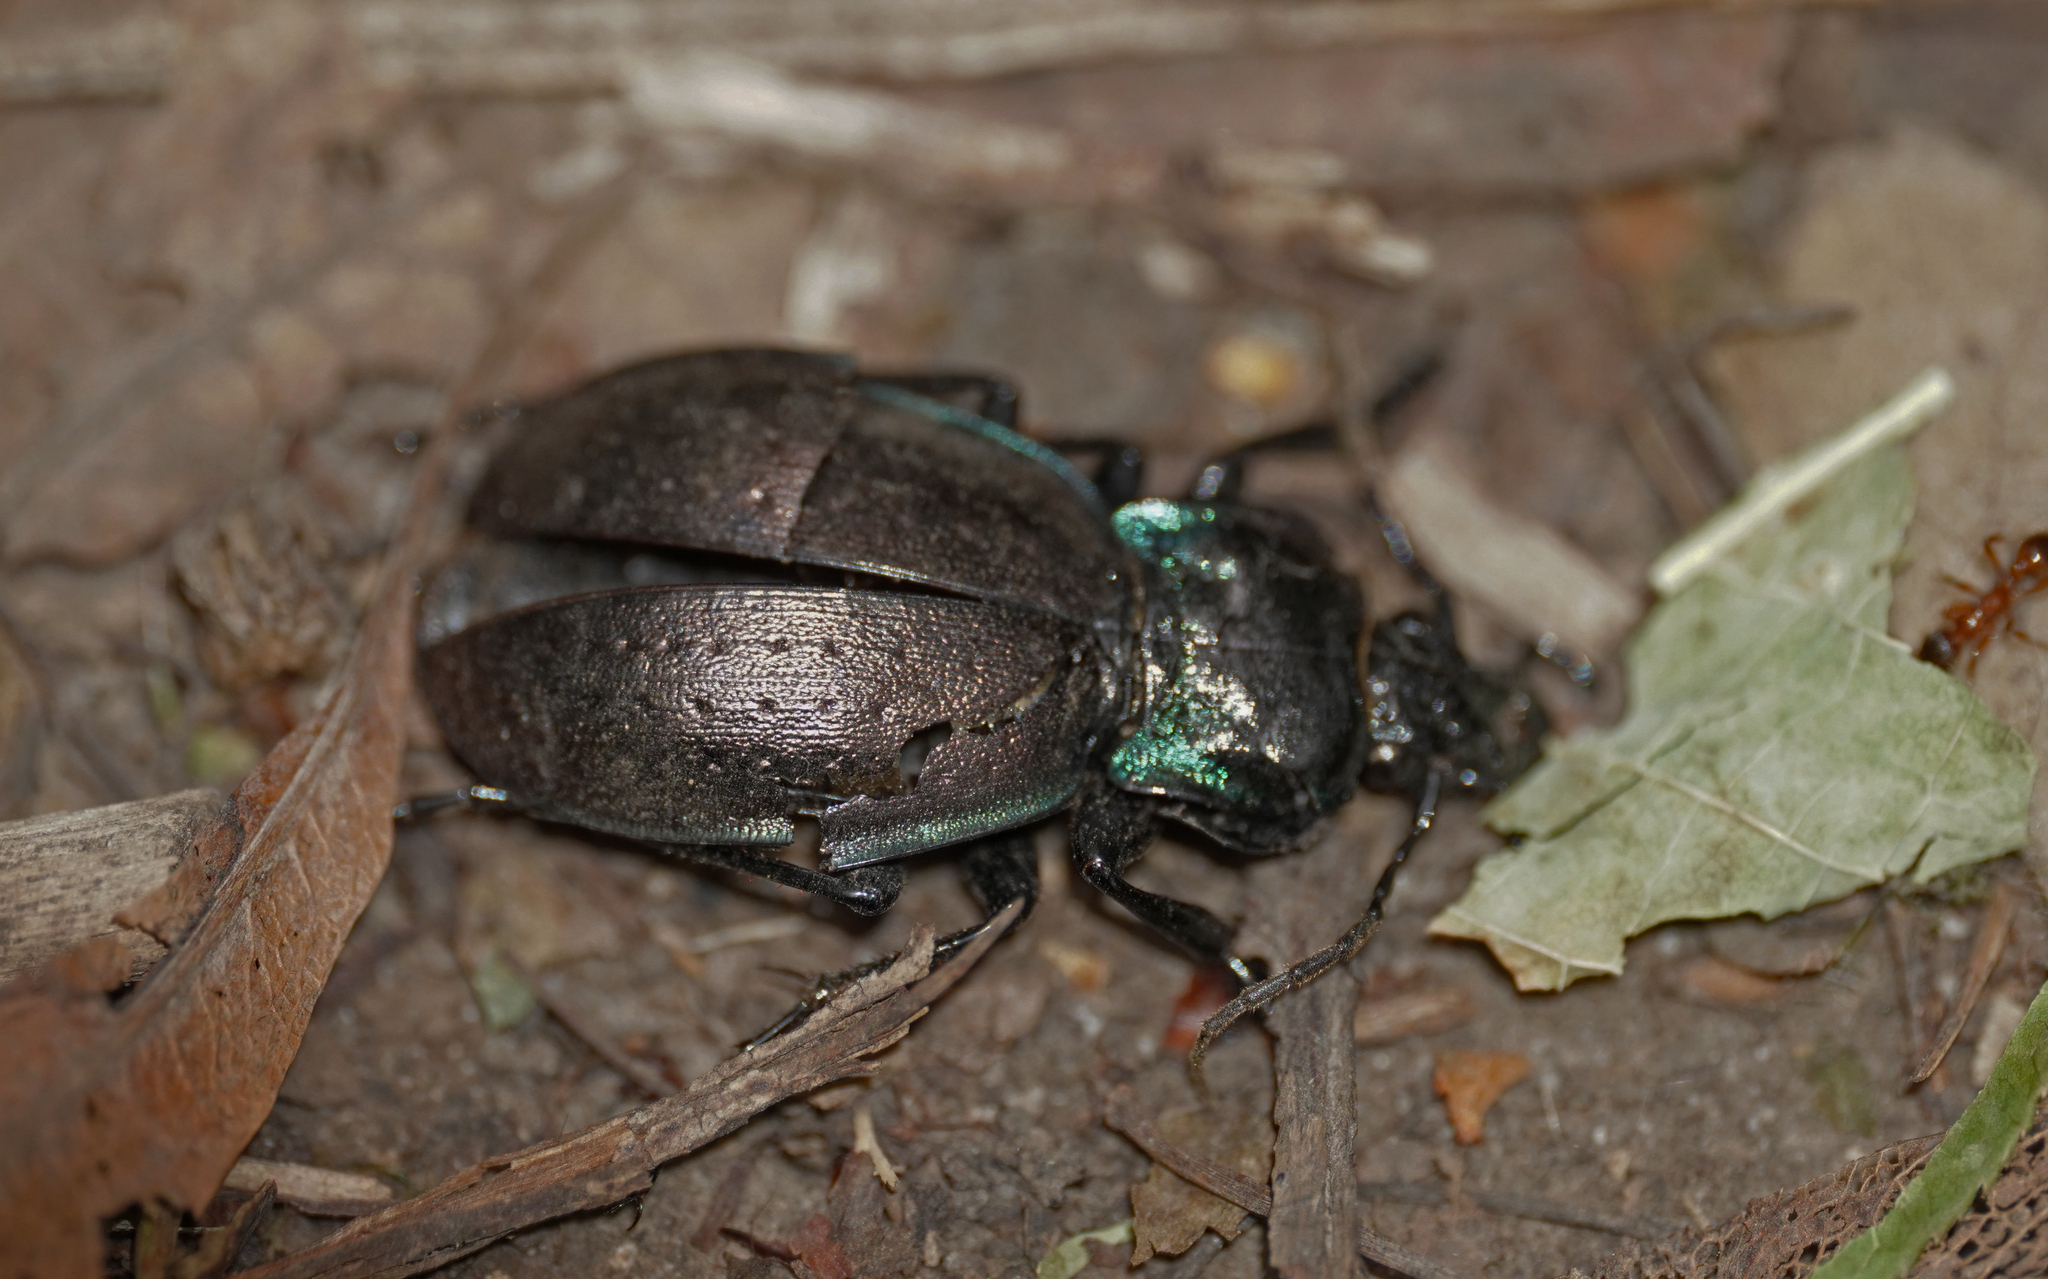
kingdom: Animalia
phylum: Arthropoda
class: Insecta
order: Coleoptera
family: Carabidae
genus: Carabus
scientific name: Carabus nemoralis
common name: European ground beetle
